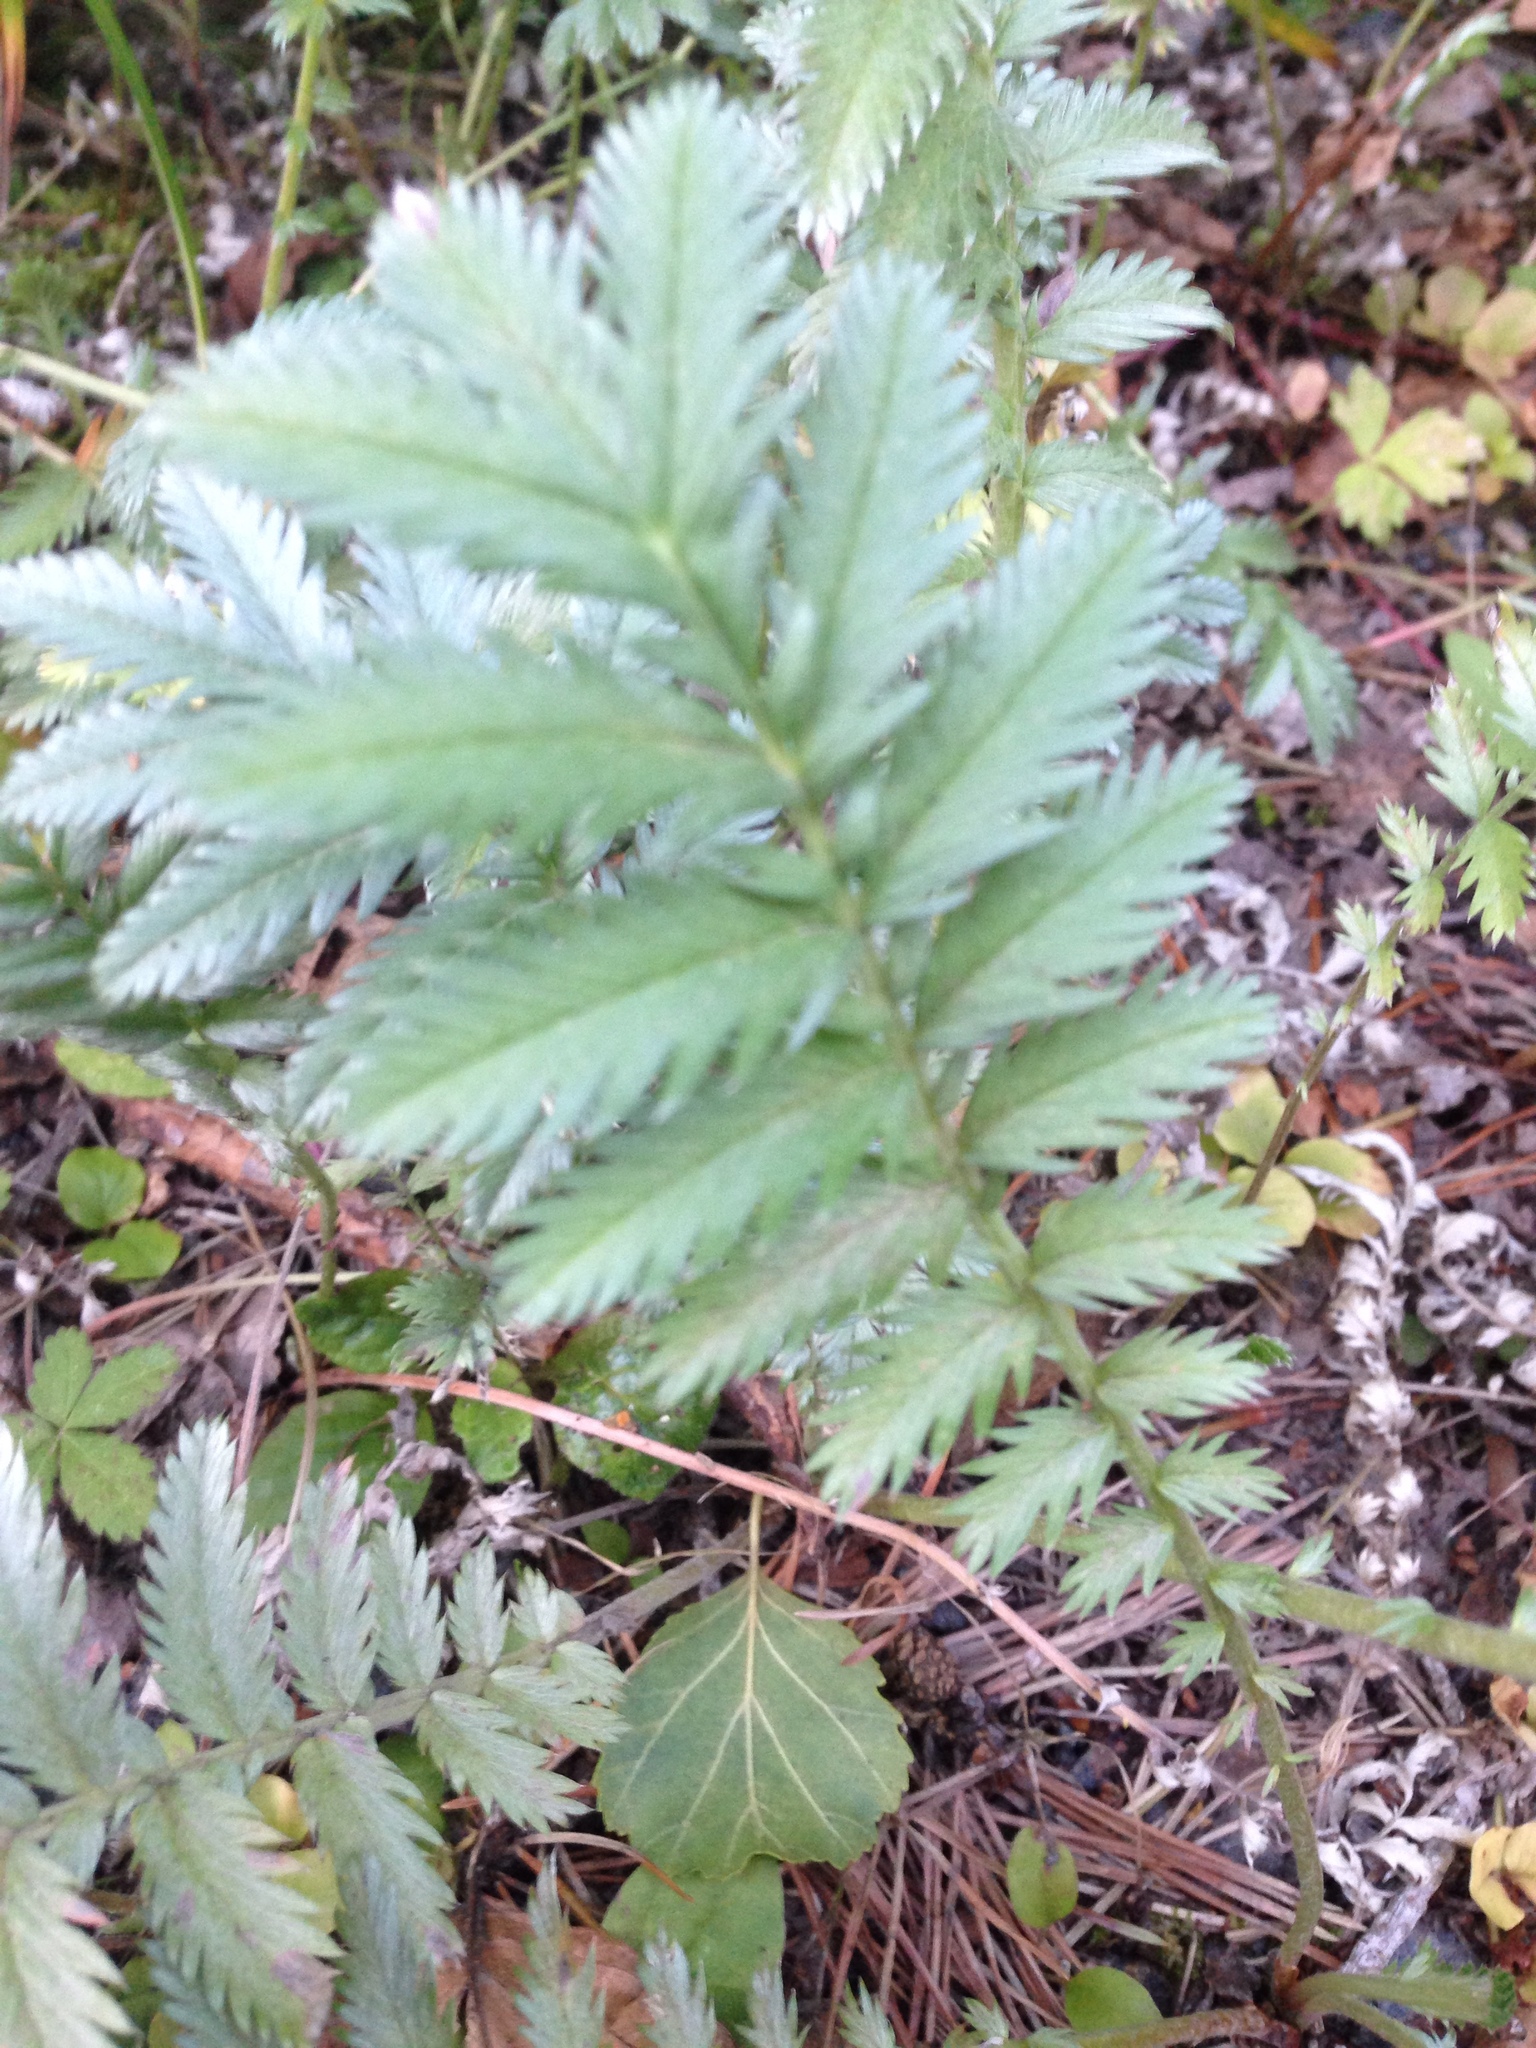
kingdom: Plantae
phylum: Tracheophyta
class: Magnoliopsida
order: Rosales
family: Rosaceae
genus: Argentina
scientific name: Argentina anserina
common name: Common silverweed
